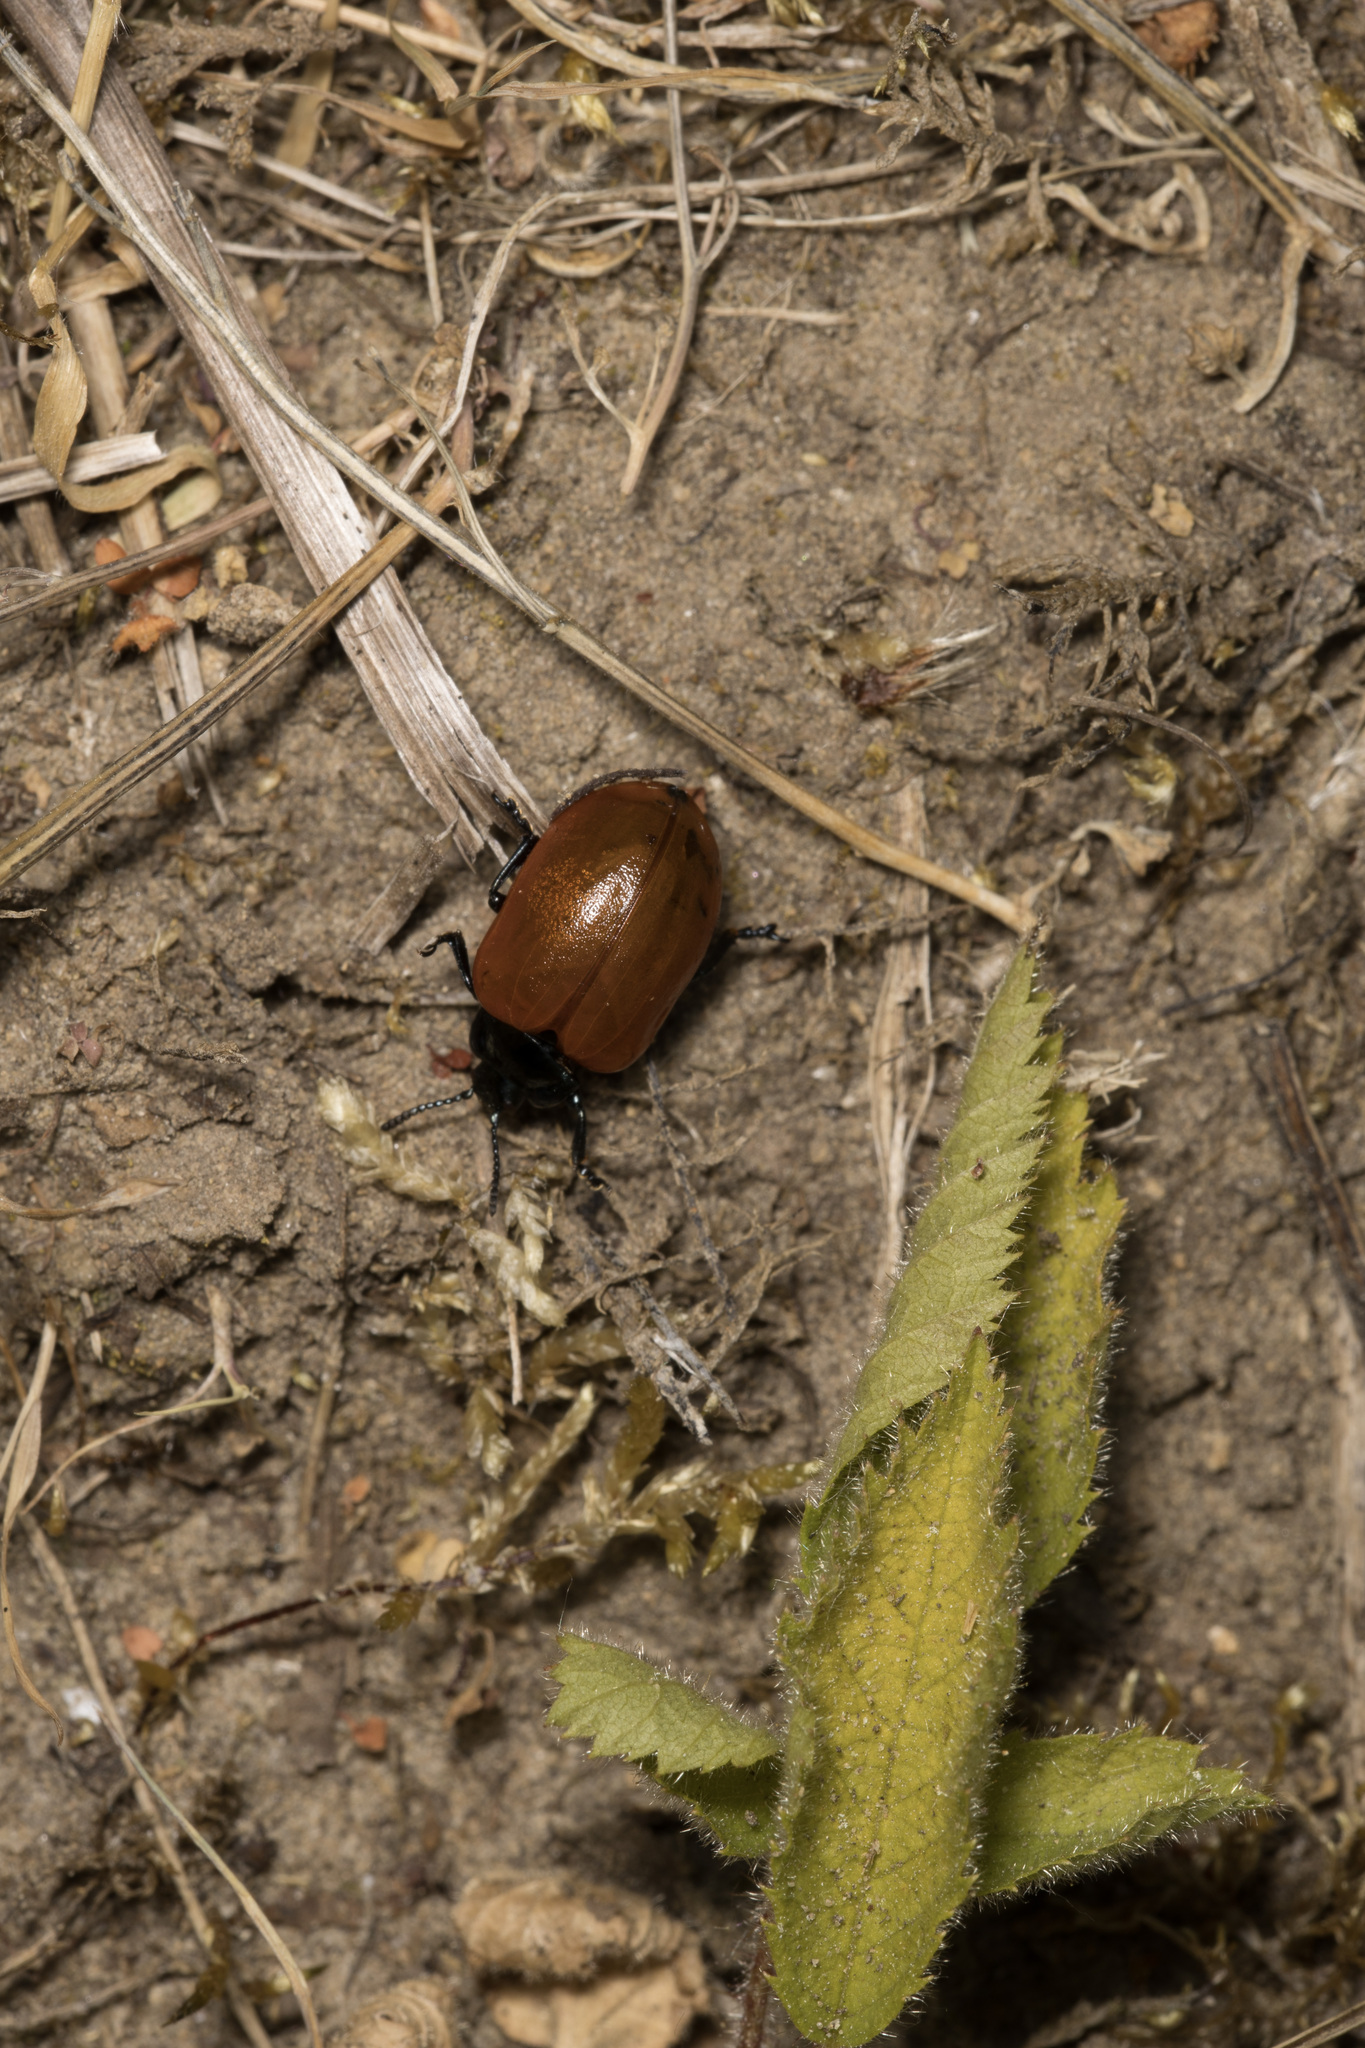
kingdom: Animalia
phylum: Arthropoda
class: Insecta
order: Coleoptera
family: Chrysomelidae
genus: Chrysomela
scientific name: Chrysomela populi
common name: Red poplar leaf beetle
